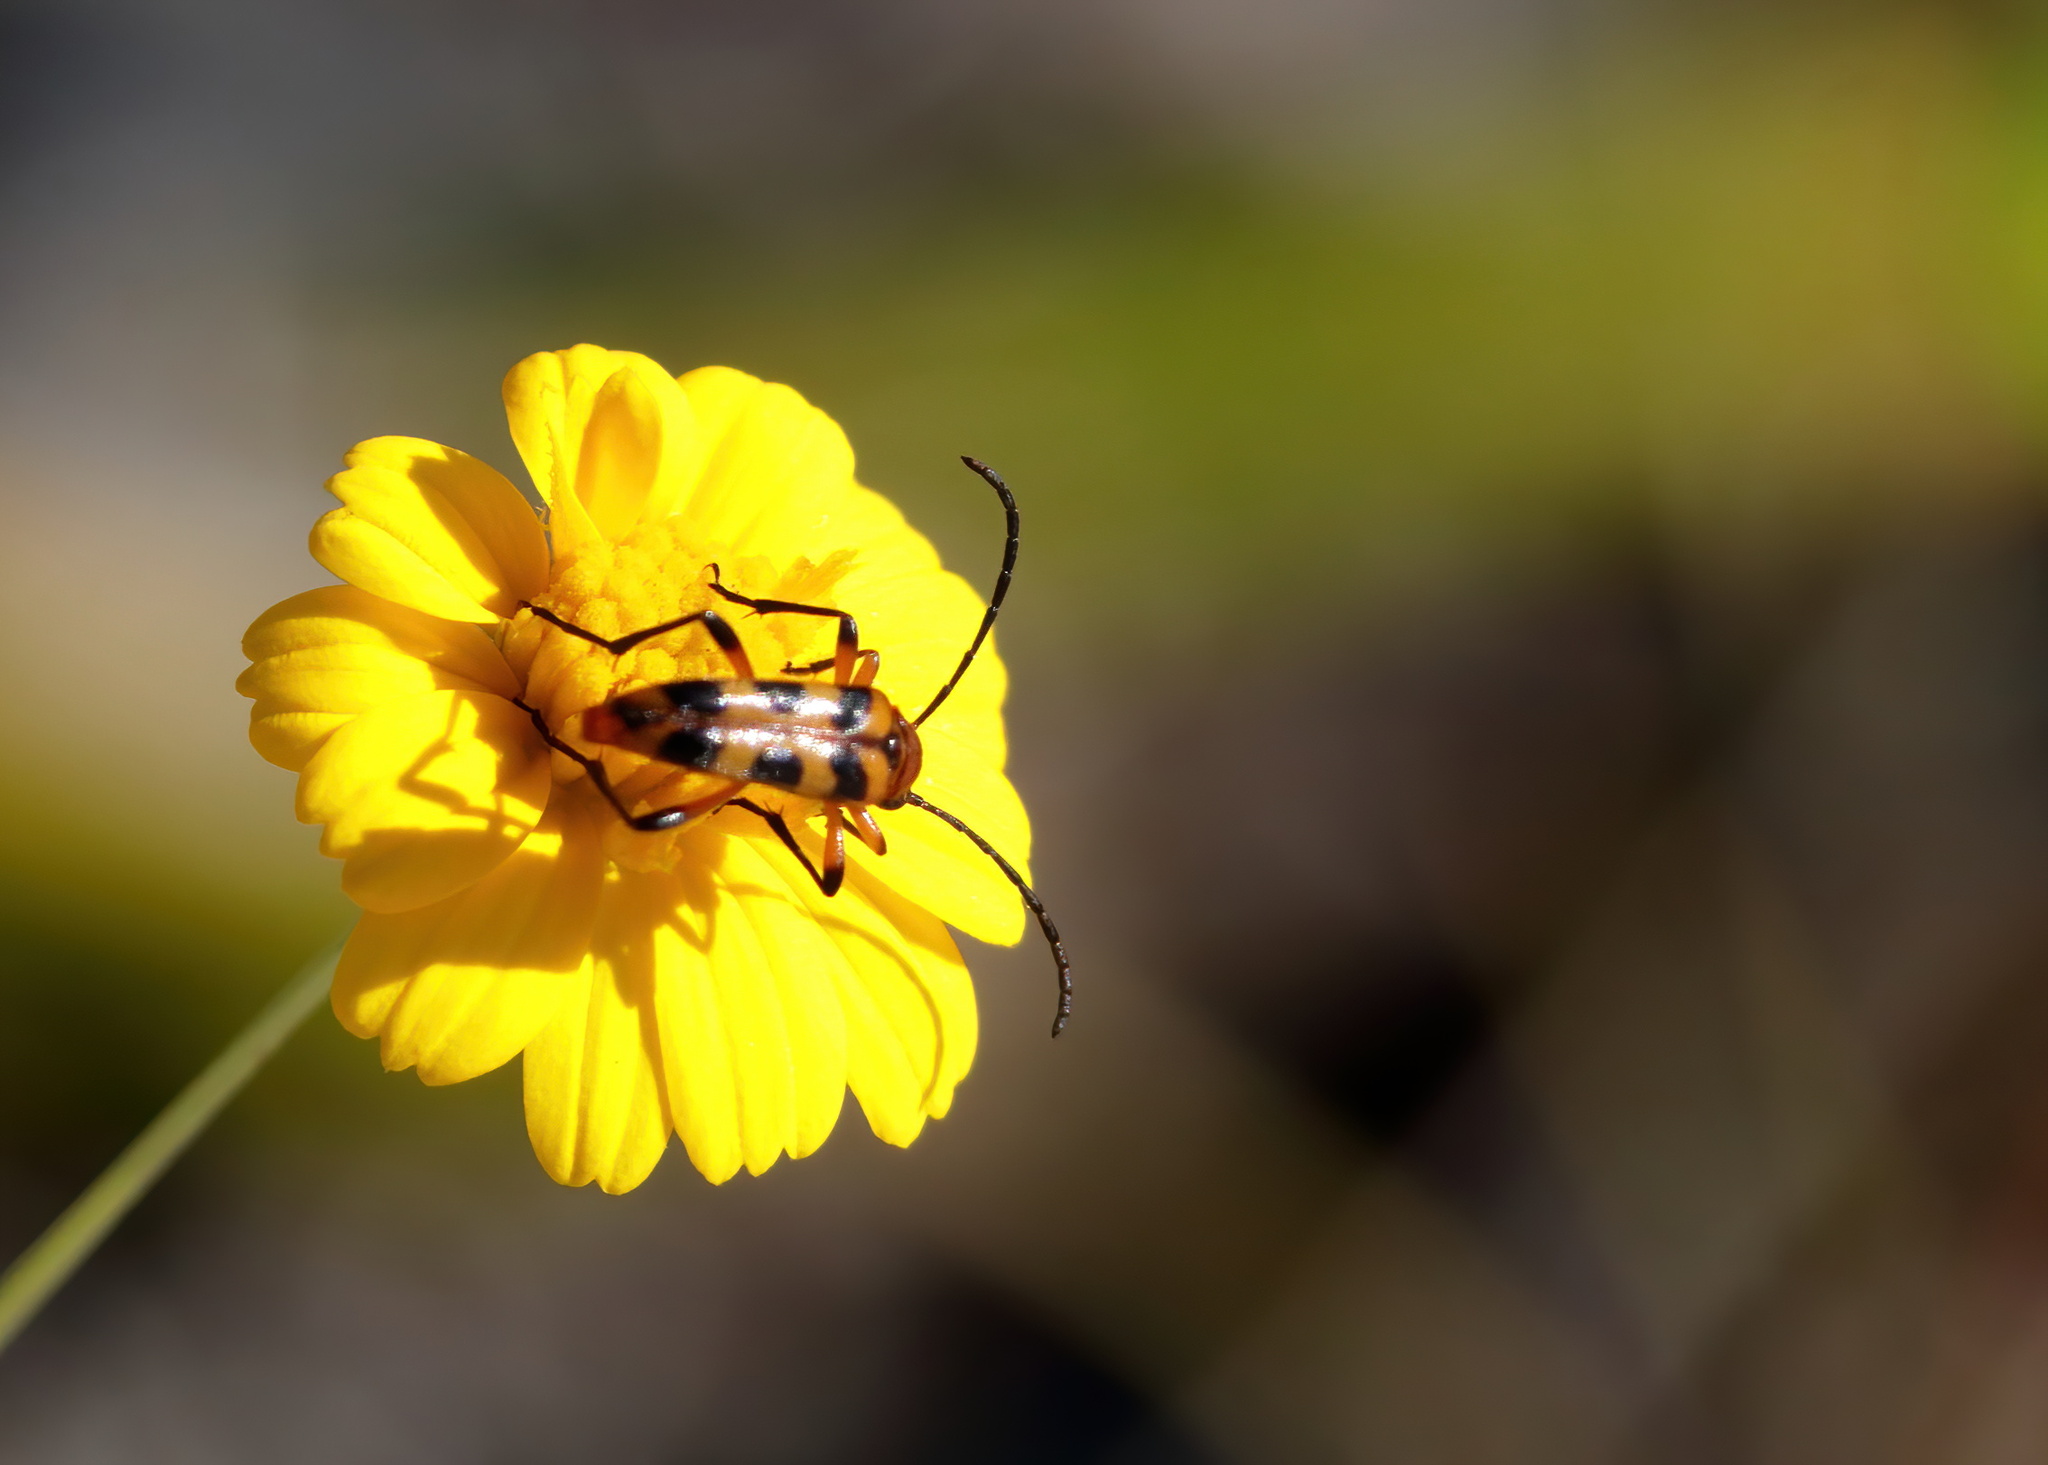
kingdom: Animalia
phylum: Arthropoda
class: Insecta
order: Coleoptera
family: Cerambycidae
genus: Strangalia
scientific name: Strangalia sexnotata
